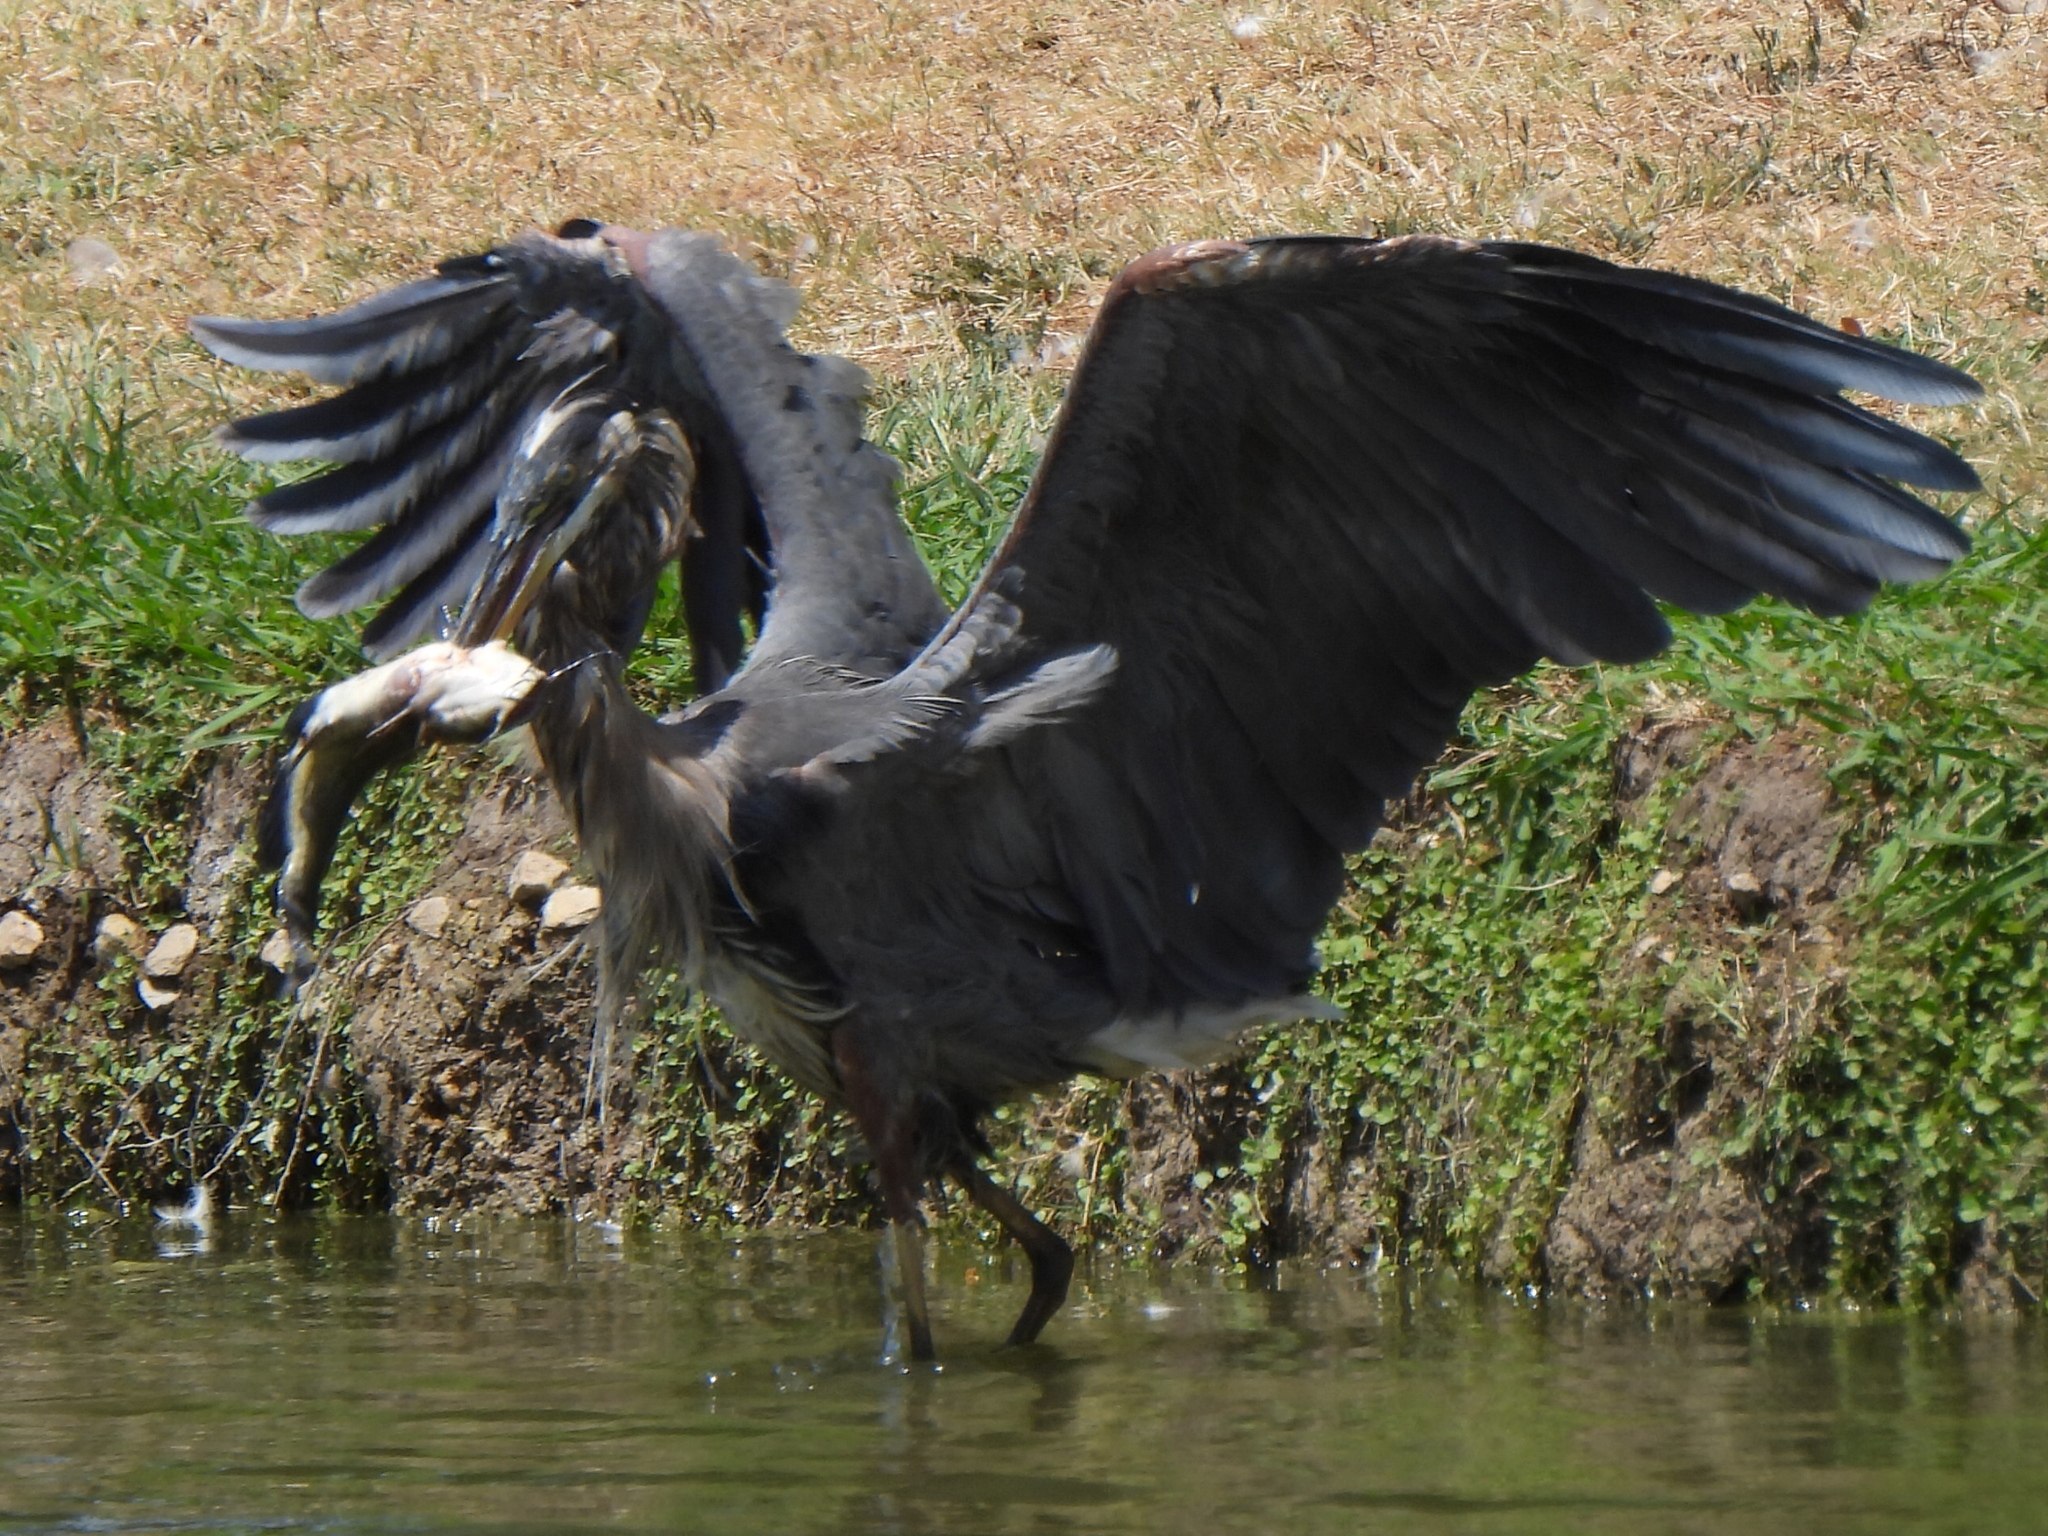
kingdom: Animalia
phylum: Chordata
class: Aves
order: Pelecaniformes
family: Ardeidae
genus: Ardea
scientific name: Ardea herodias
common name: Great blue heron
